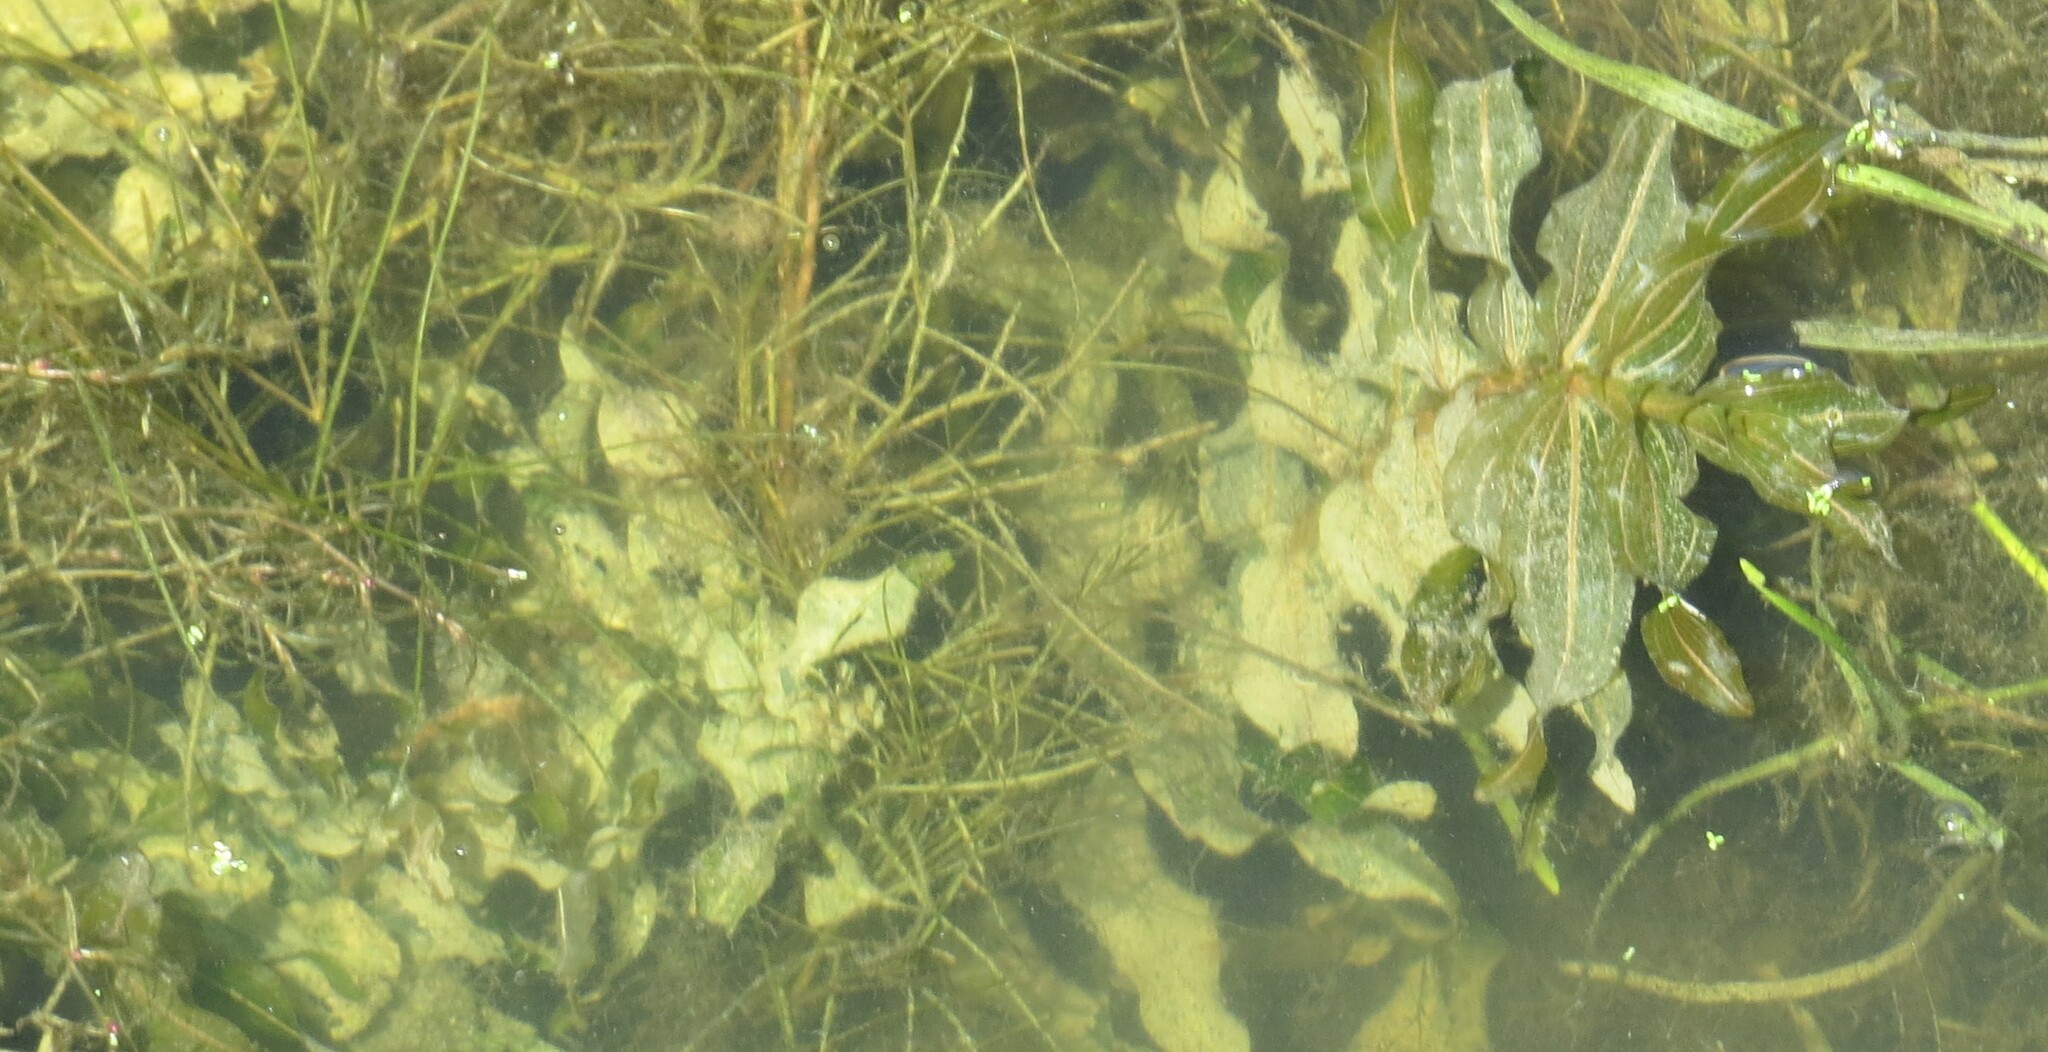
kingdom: Plantae
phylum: Tracheophyta
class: Liliopsida
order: Alismatales
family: Potamogetonaceae
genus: Potamogeton
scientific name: Potamogeton richardsonii
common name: Richardson's pondweed
